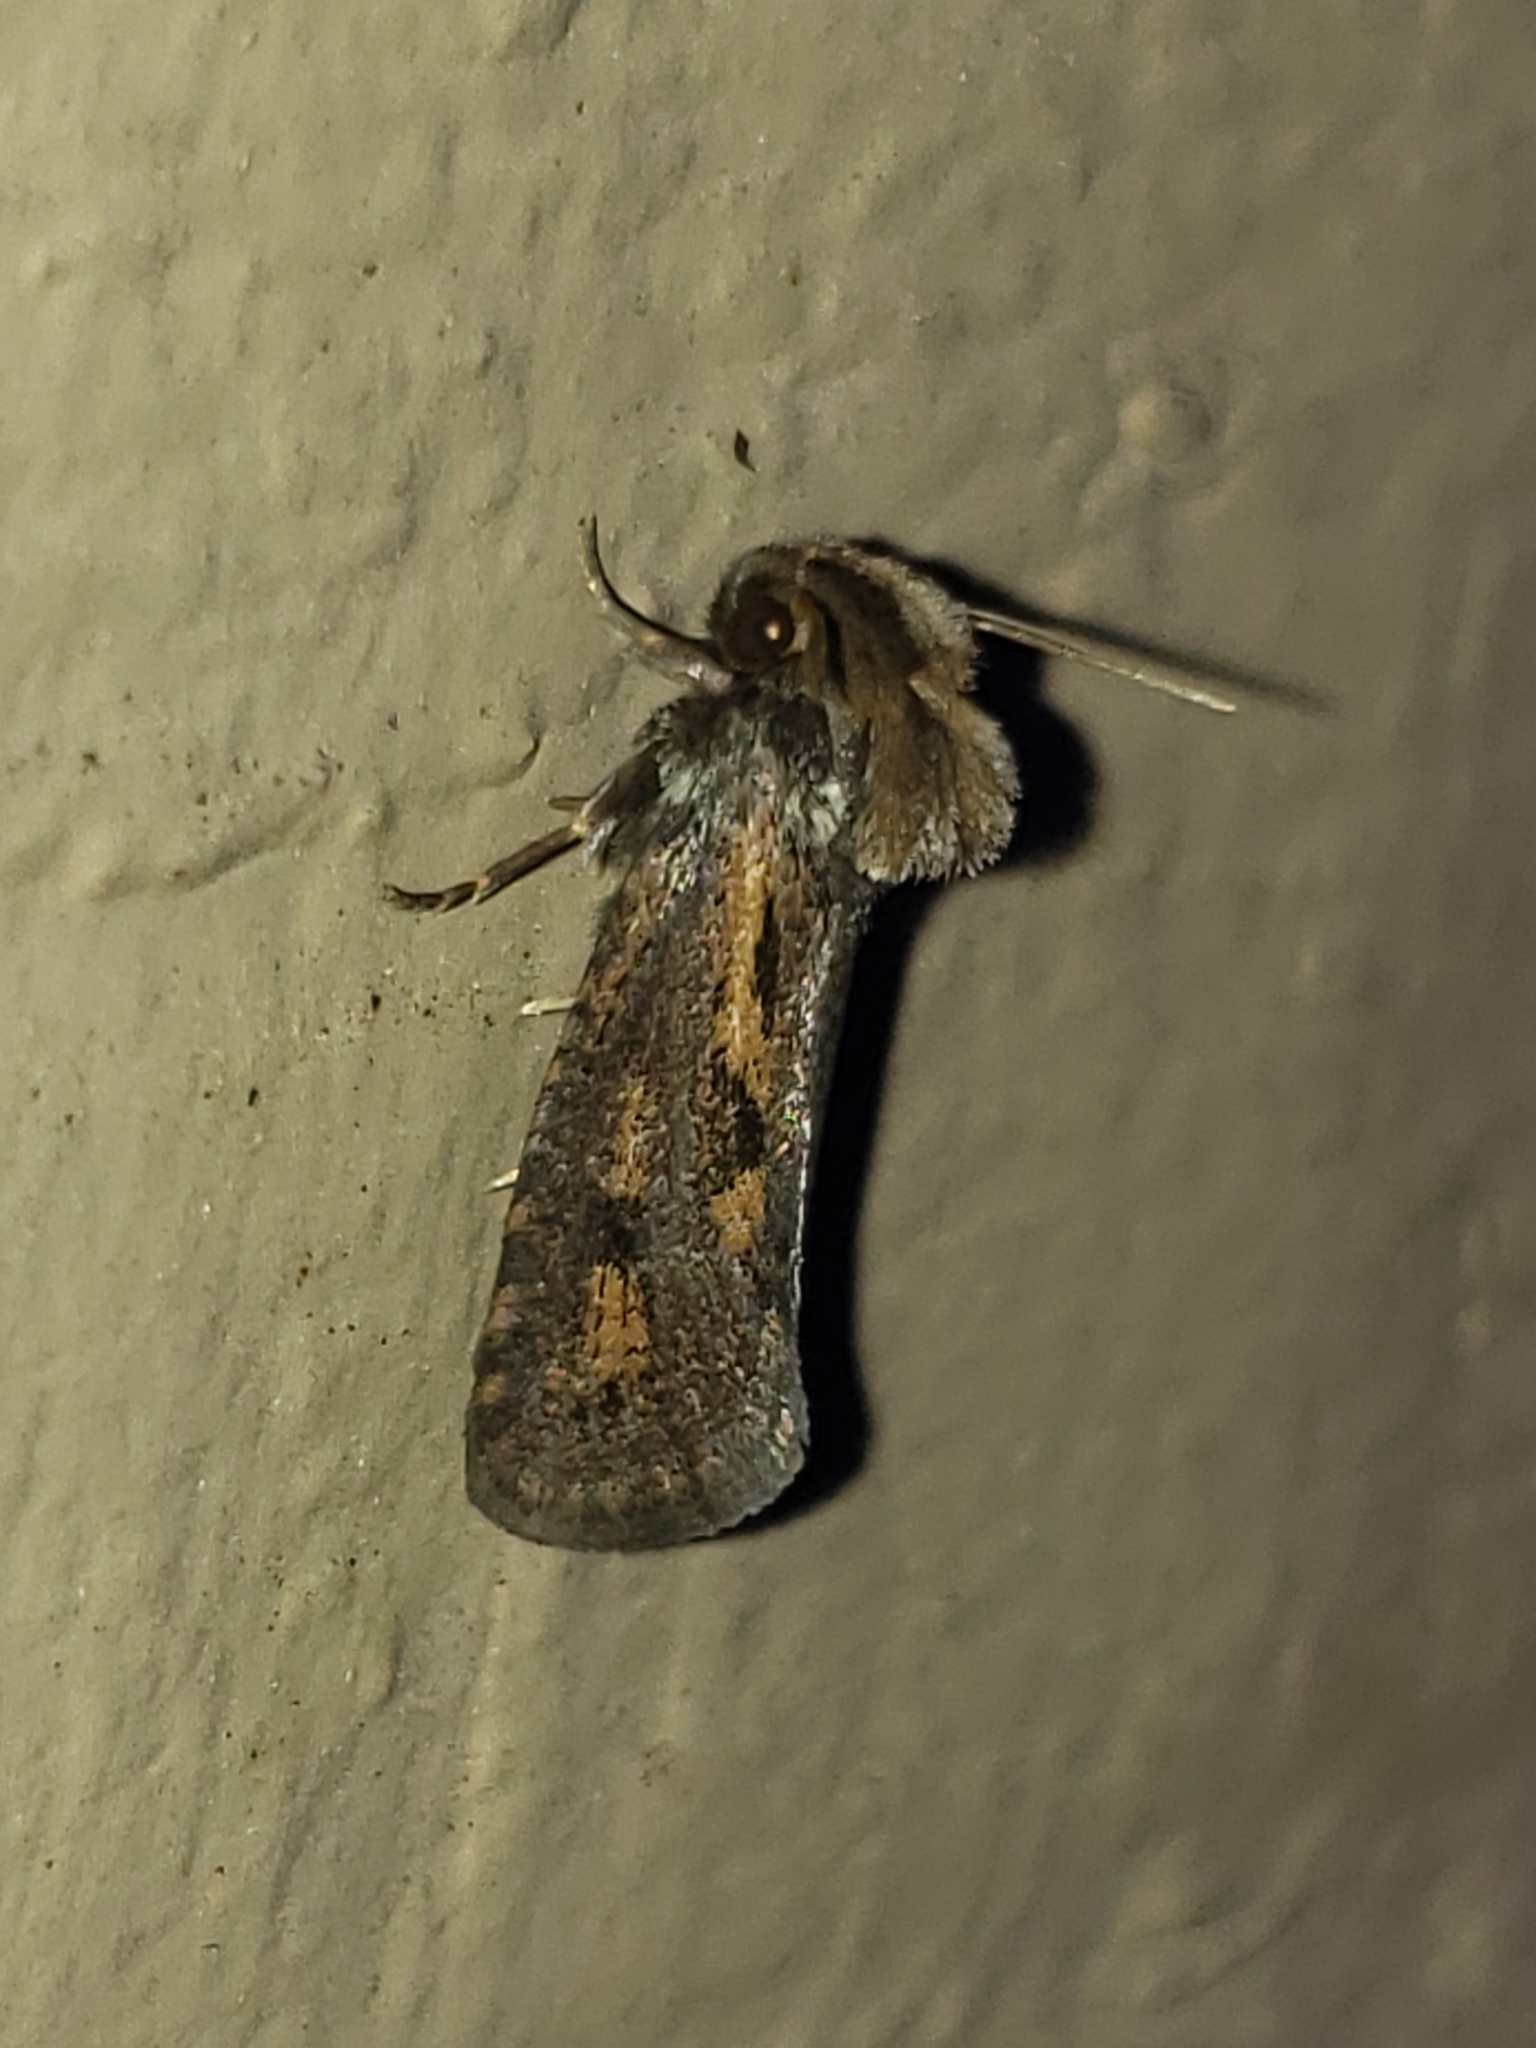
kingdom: Animalia
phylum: Arthropoda
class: Insecta
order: Lepidoptera
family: Tineidae
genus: Acrolophus
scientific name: Acrolophus popeanella
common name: Clemens' grass tubeworm moth
